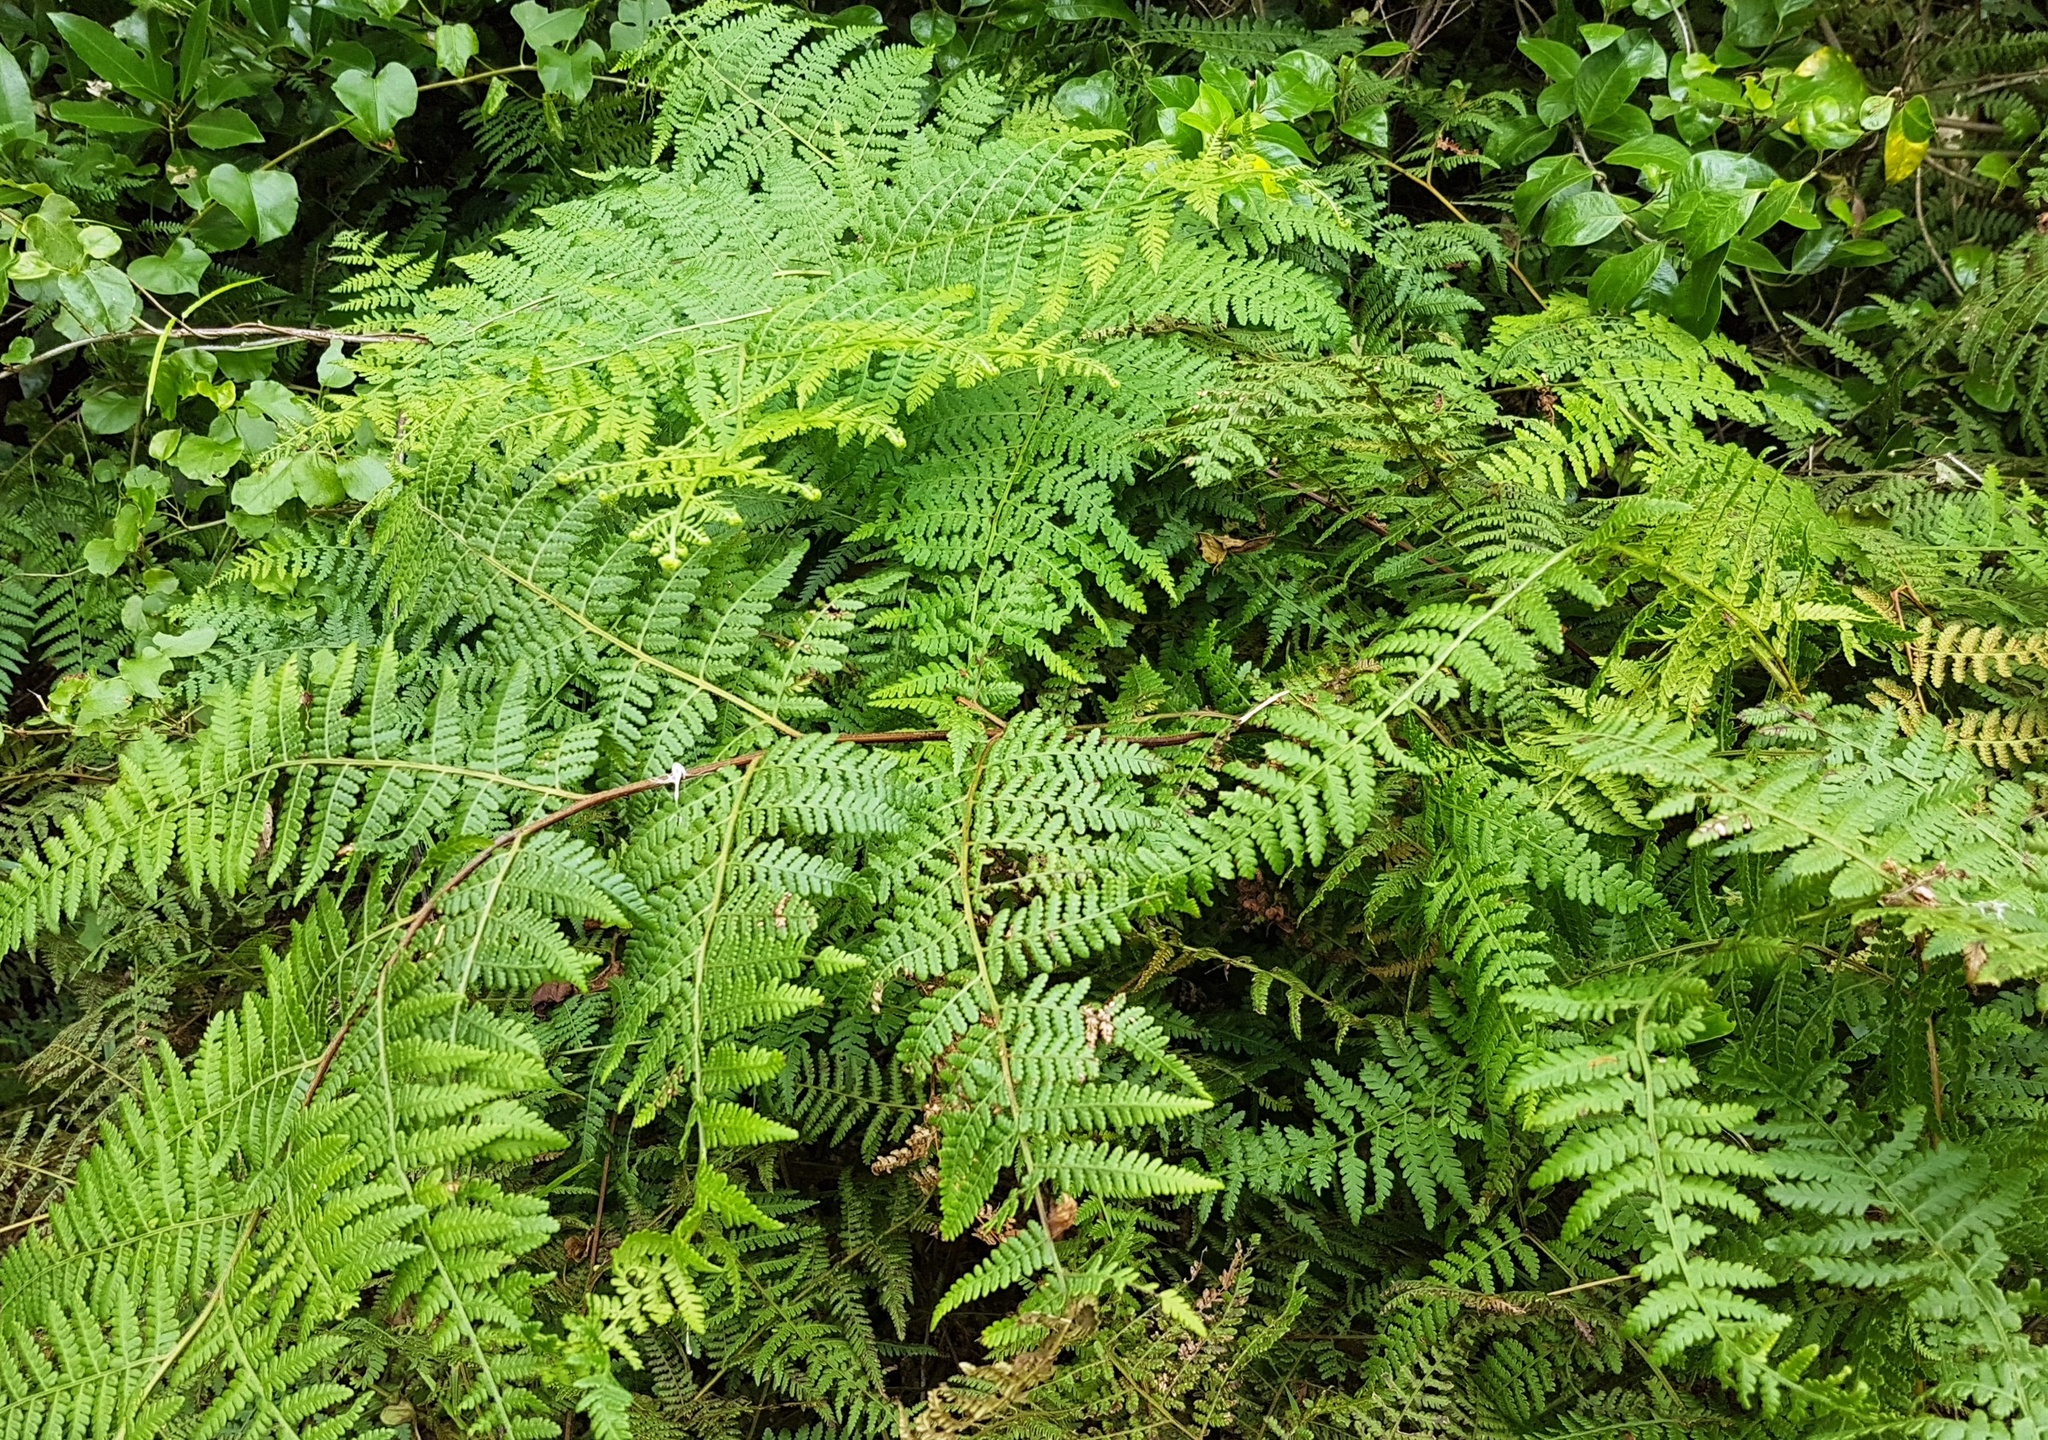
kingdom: Plantae
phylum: Tracheophyta
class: Polypodiopsida
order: Polypodiales
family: Dennstaedtiaceae
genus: Hypolepis
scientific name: Hypolepis ambigua
